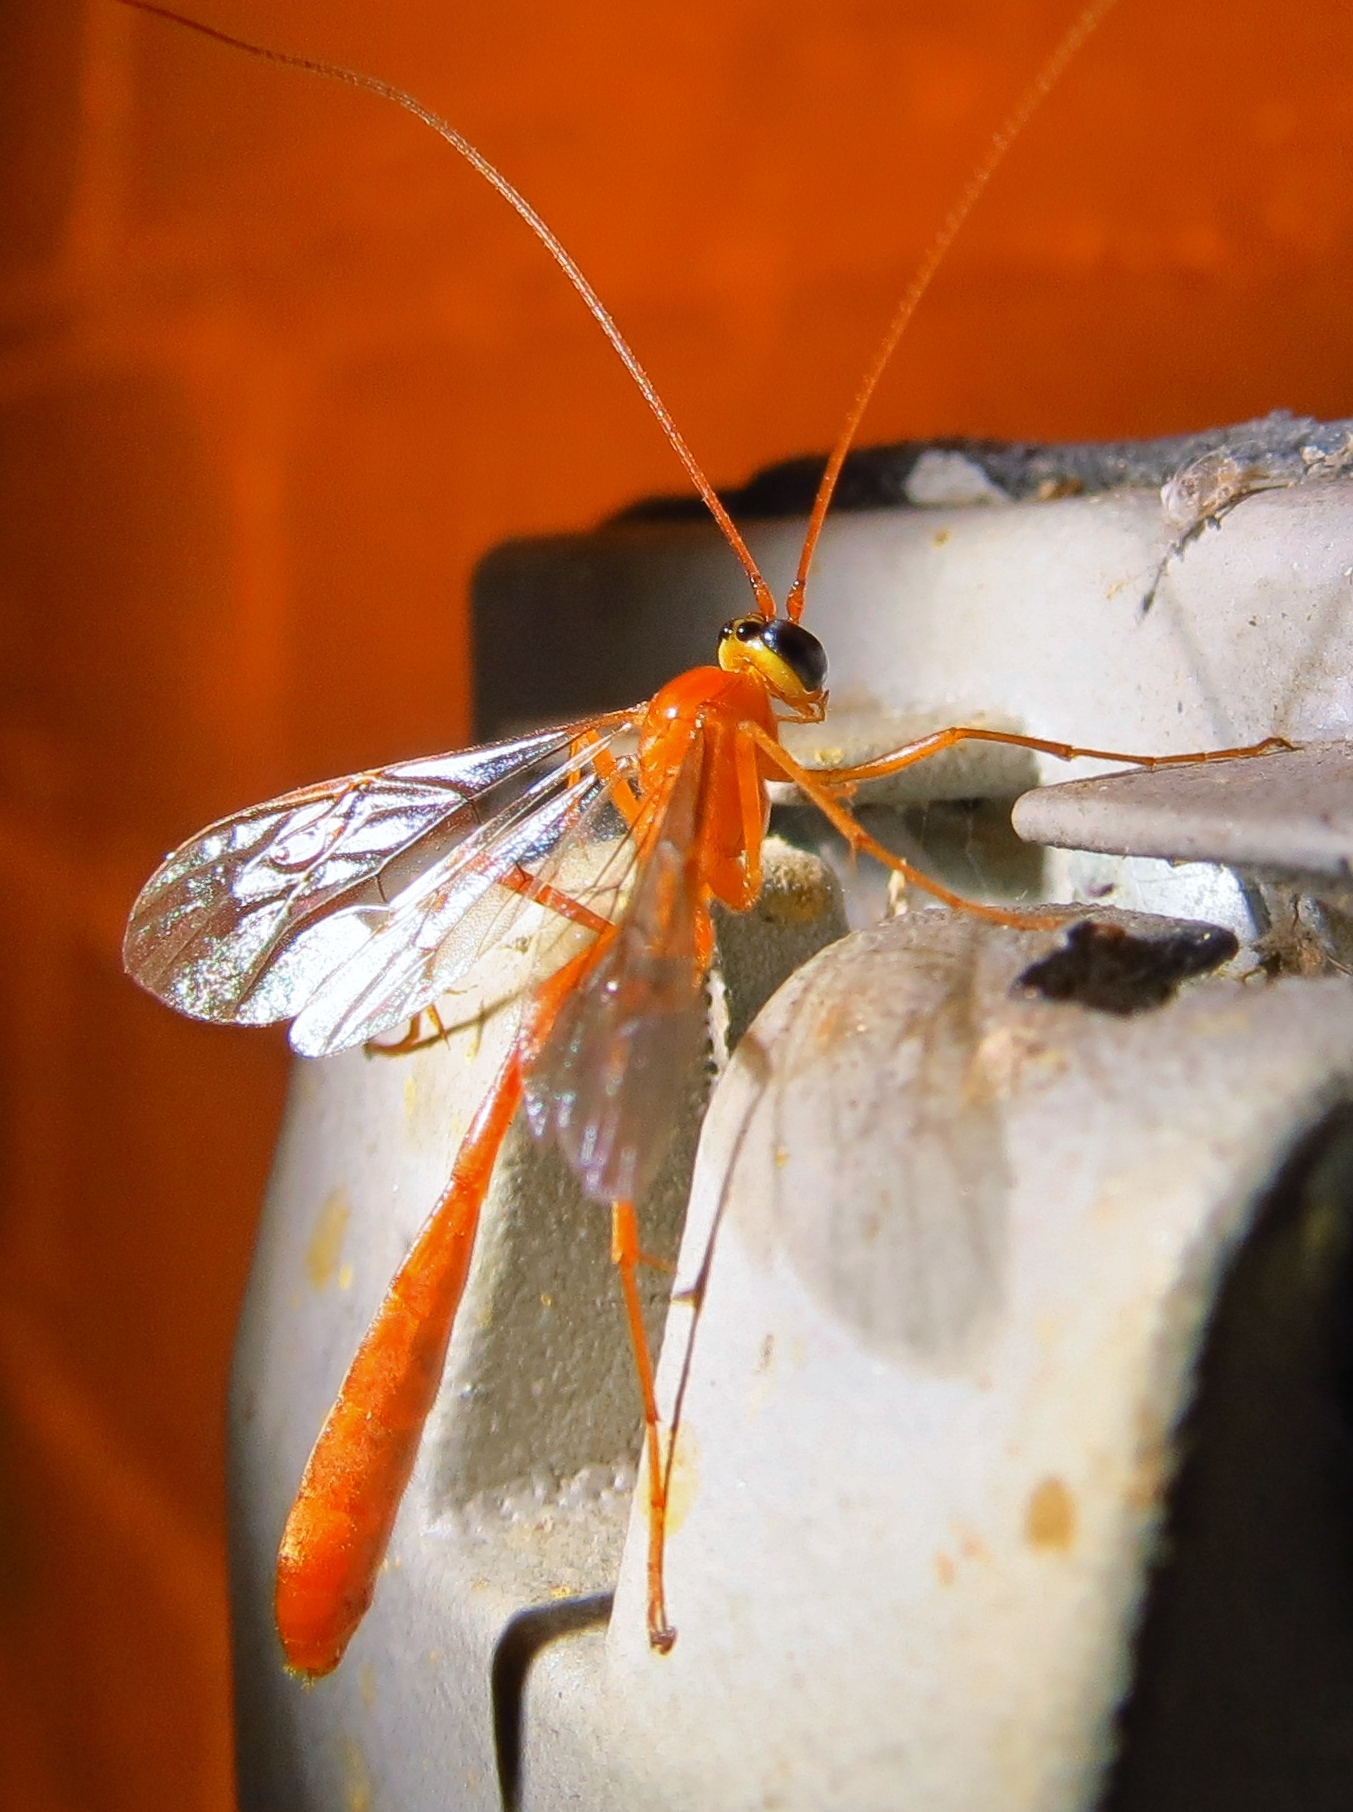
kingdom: Animalia
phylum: Arthropoda
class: Insecta
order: Hymenoptera
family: Ichneumonidae
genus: Enicospilus
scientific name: Enicospilus
